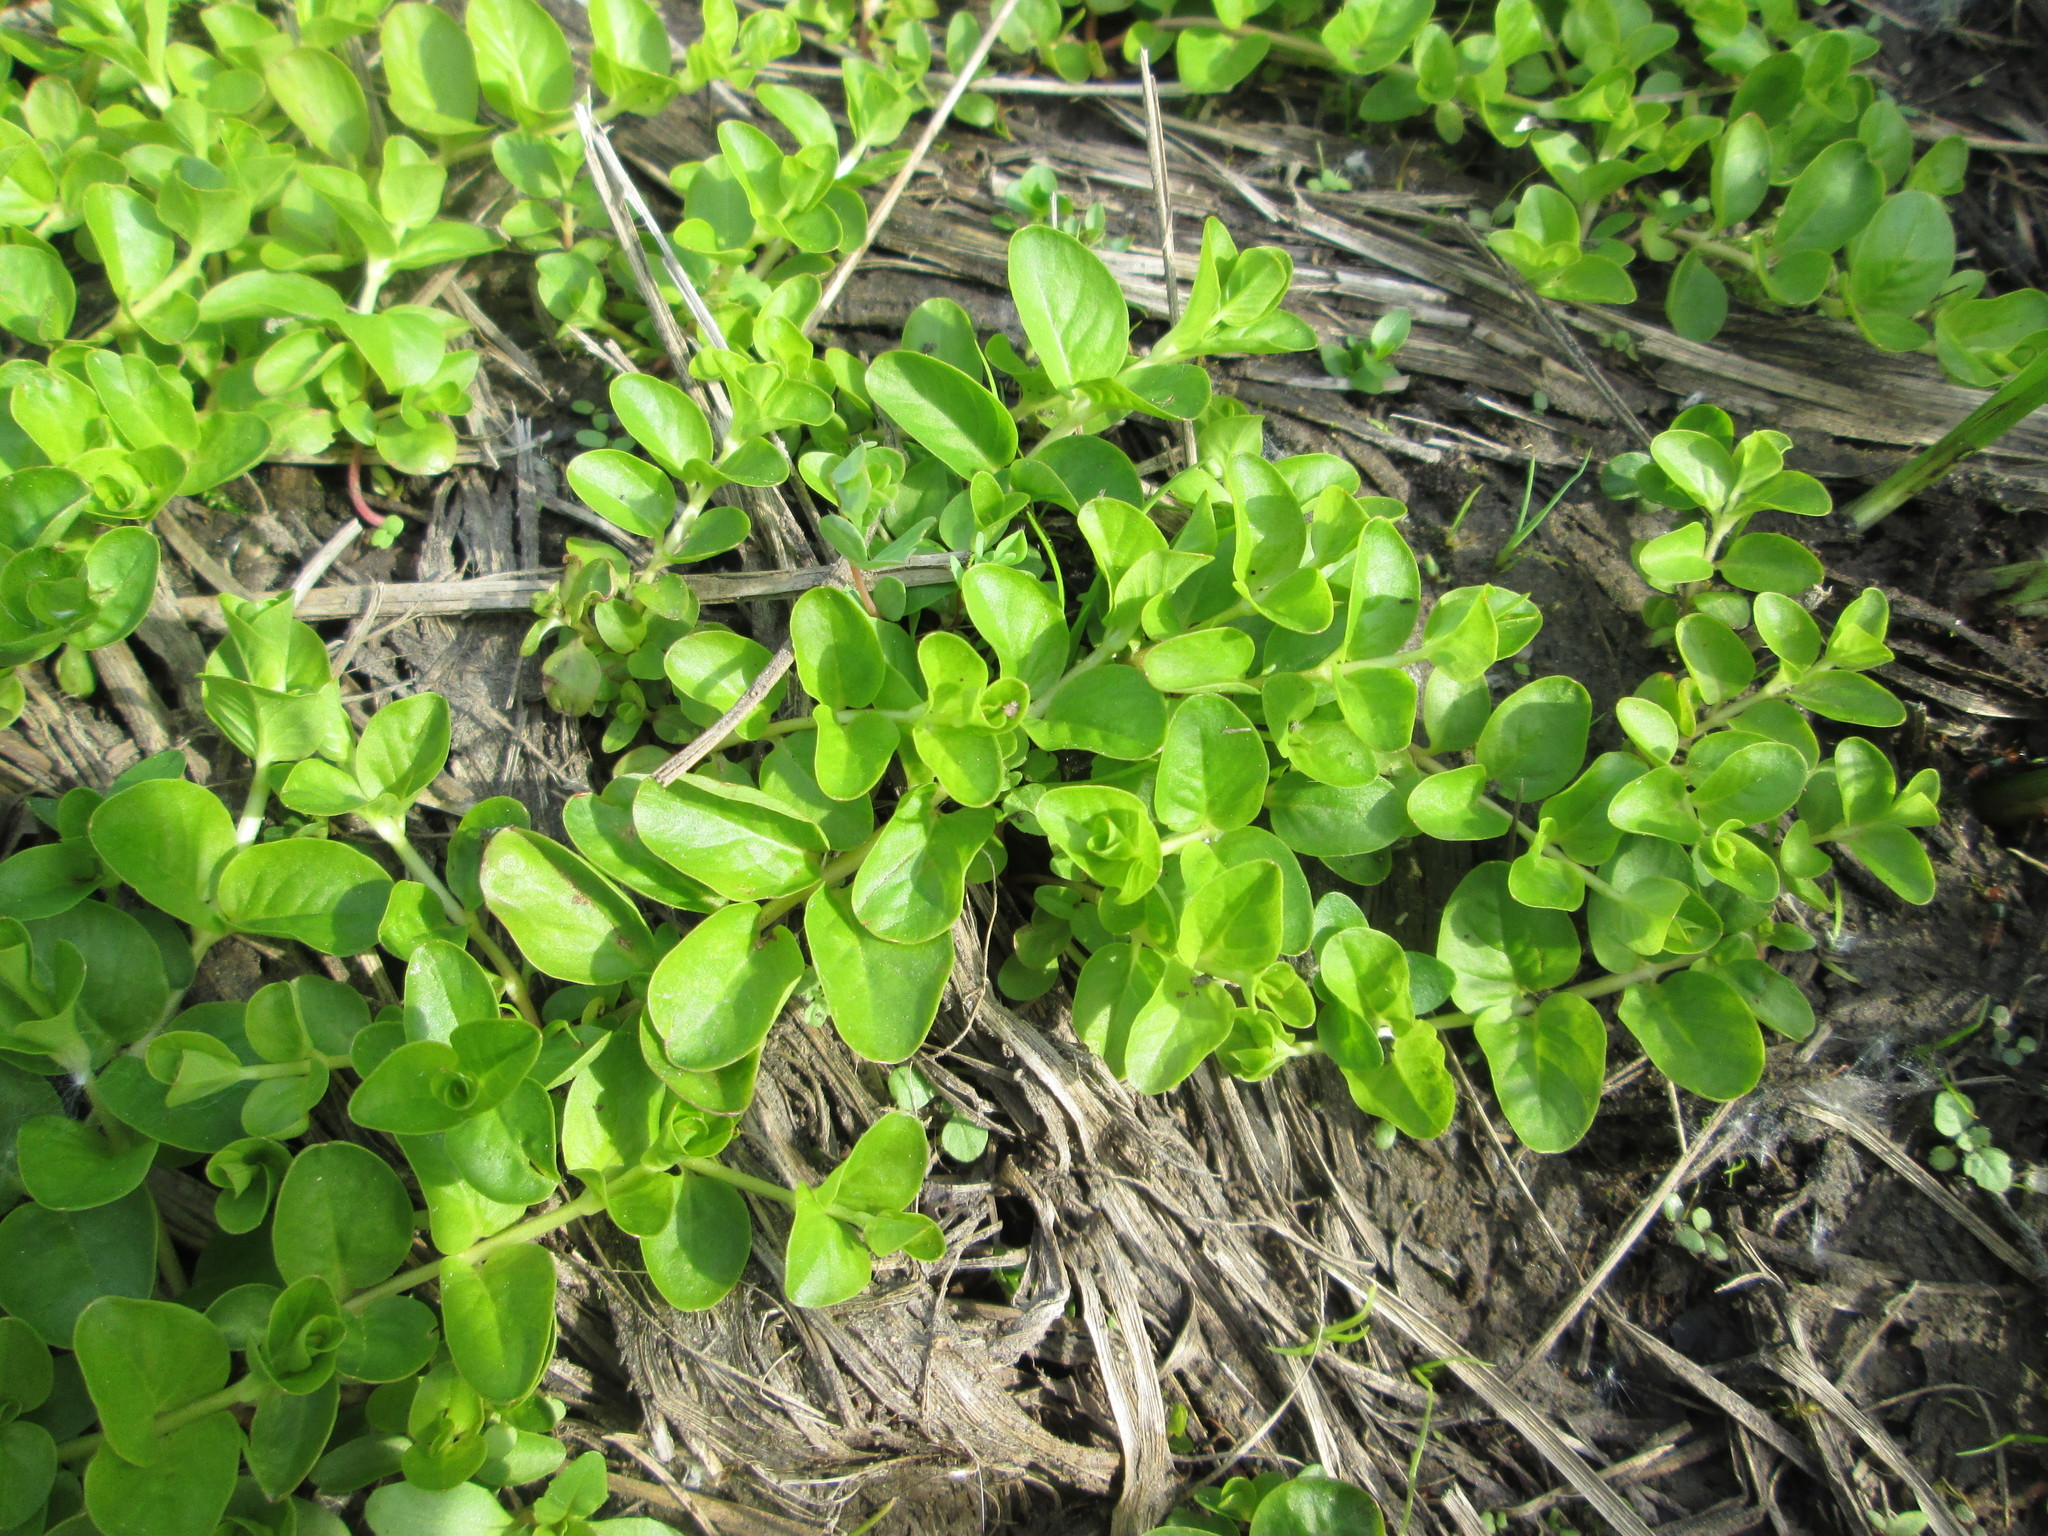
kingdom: Plantae
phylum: Tracheophyta
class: Magnoliopsida
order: Ericales
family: Primulaceae
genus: Lysimachia
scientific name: Lysimachia nummularia
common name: Moneywort
